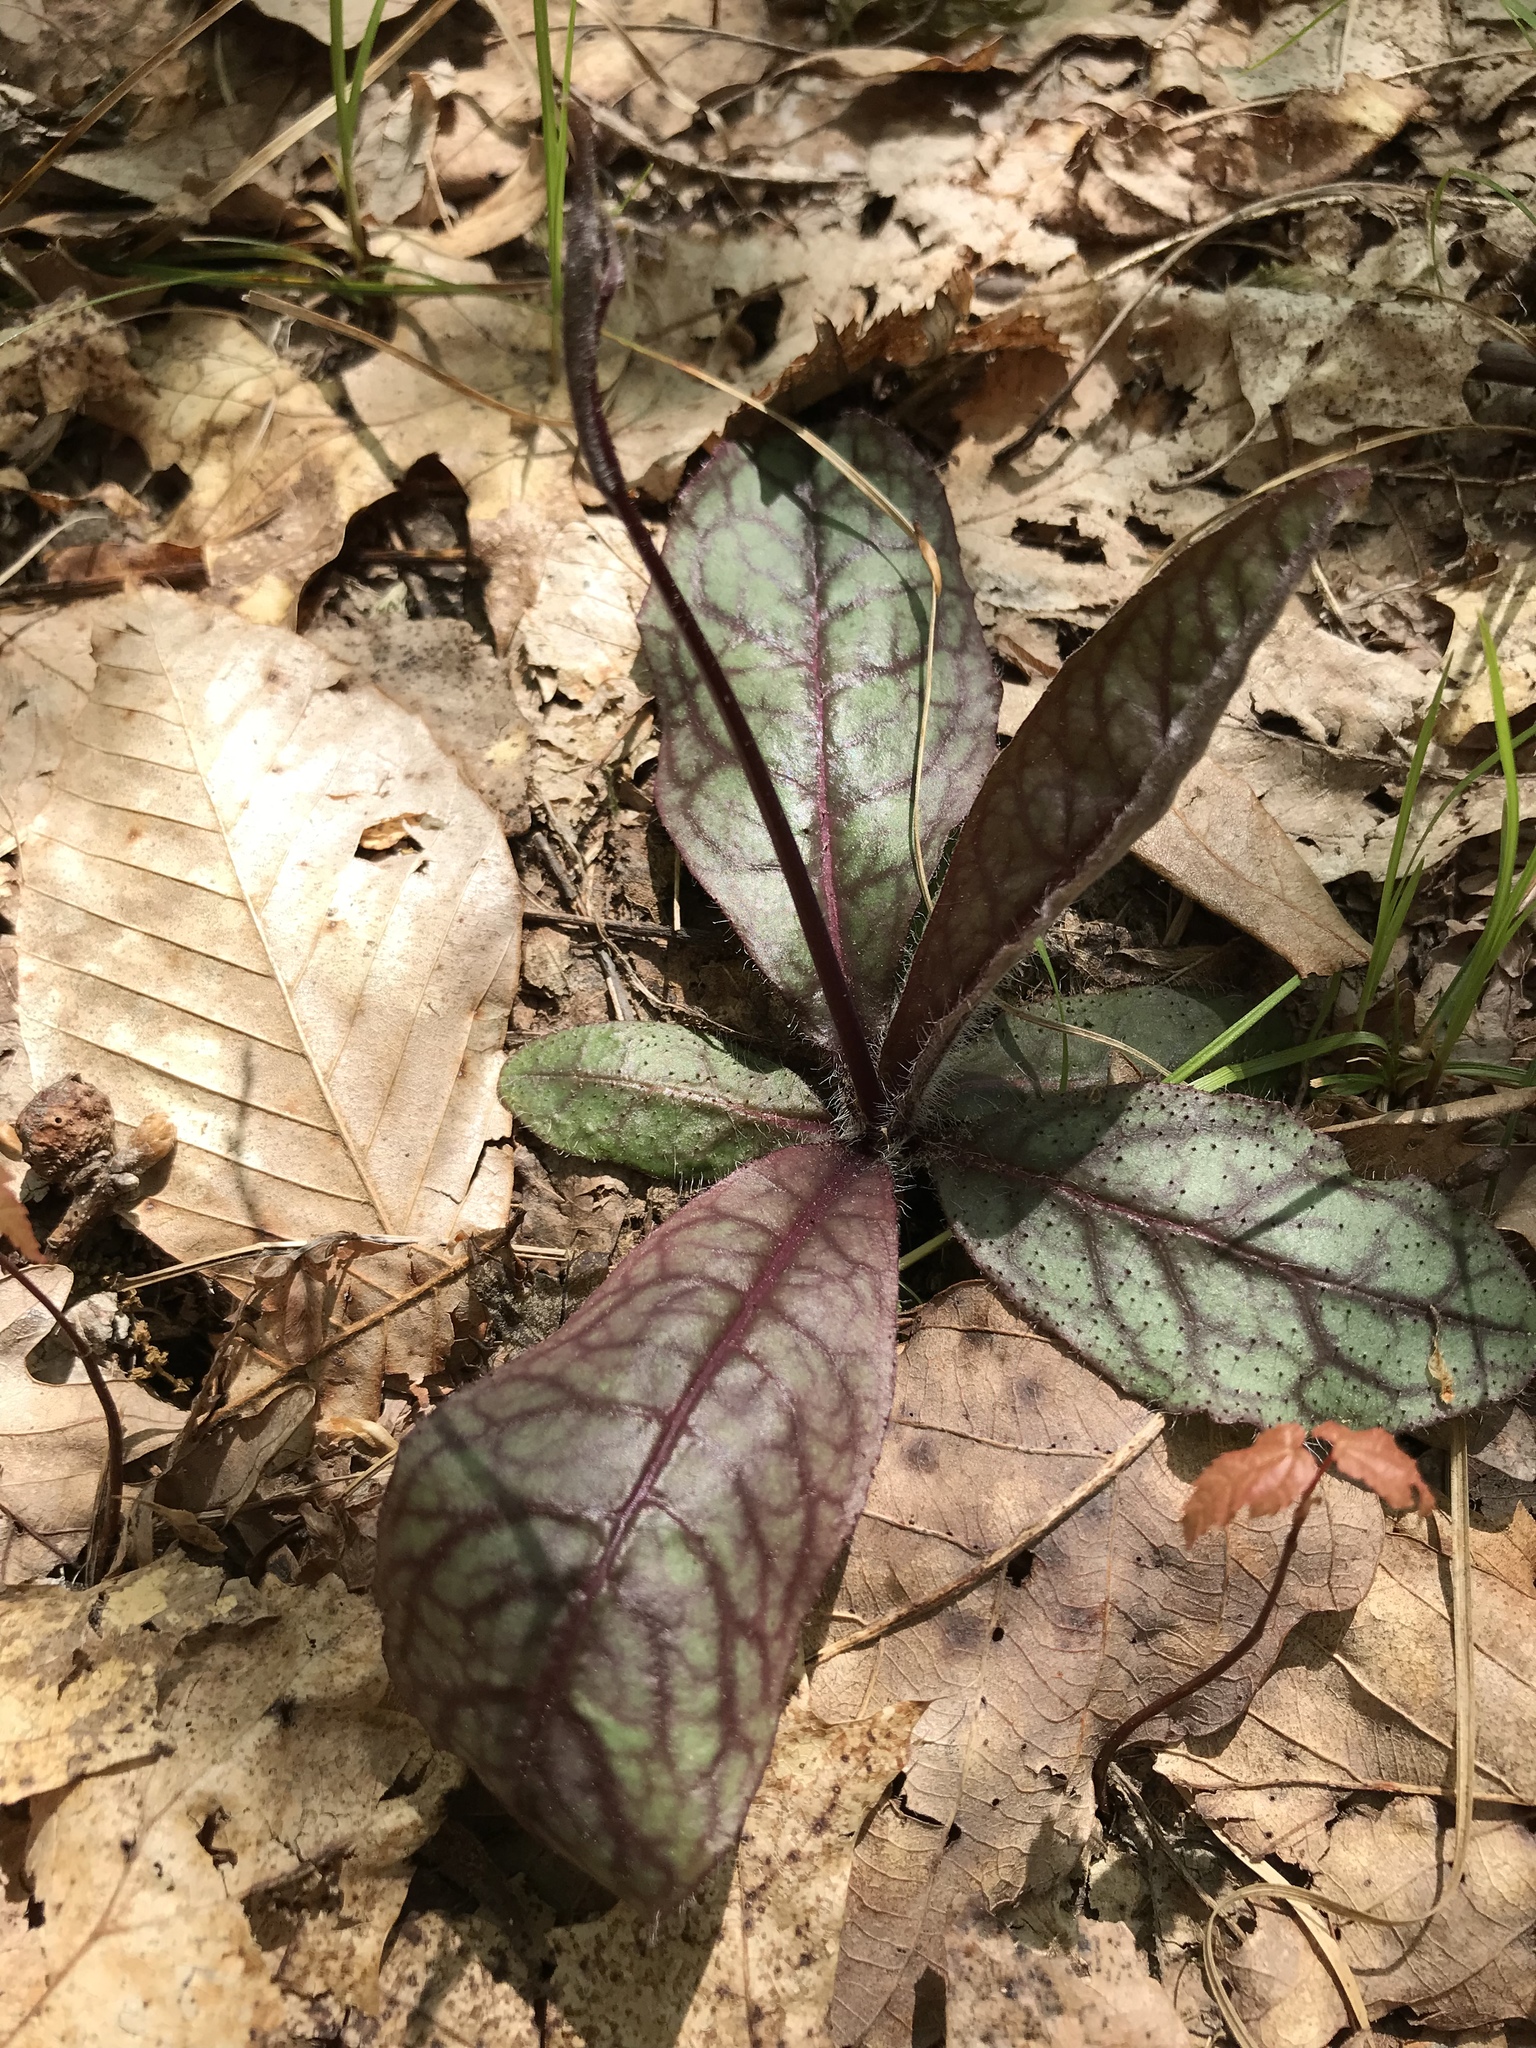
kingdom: Plantae
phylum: Tracheophyta
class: Magnoliopsida
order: Asterales
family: Asteraceae
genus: Hieracium
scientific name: Hieracium venosum
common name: Rattlesnake hawkweed
